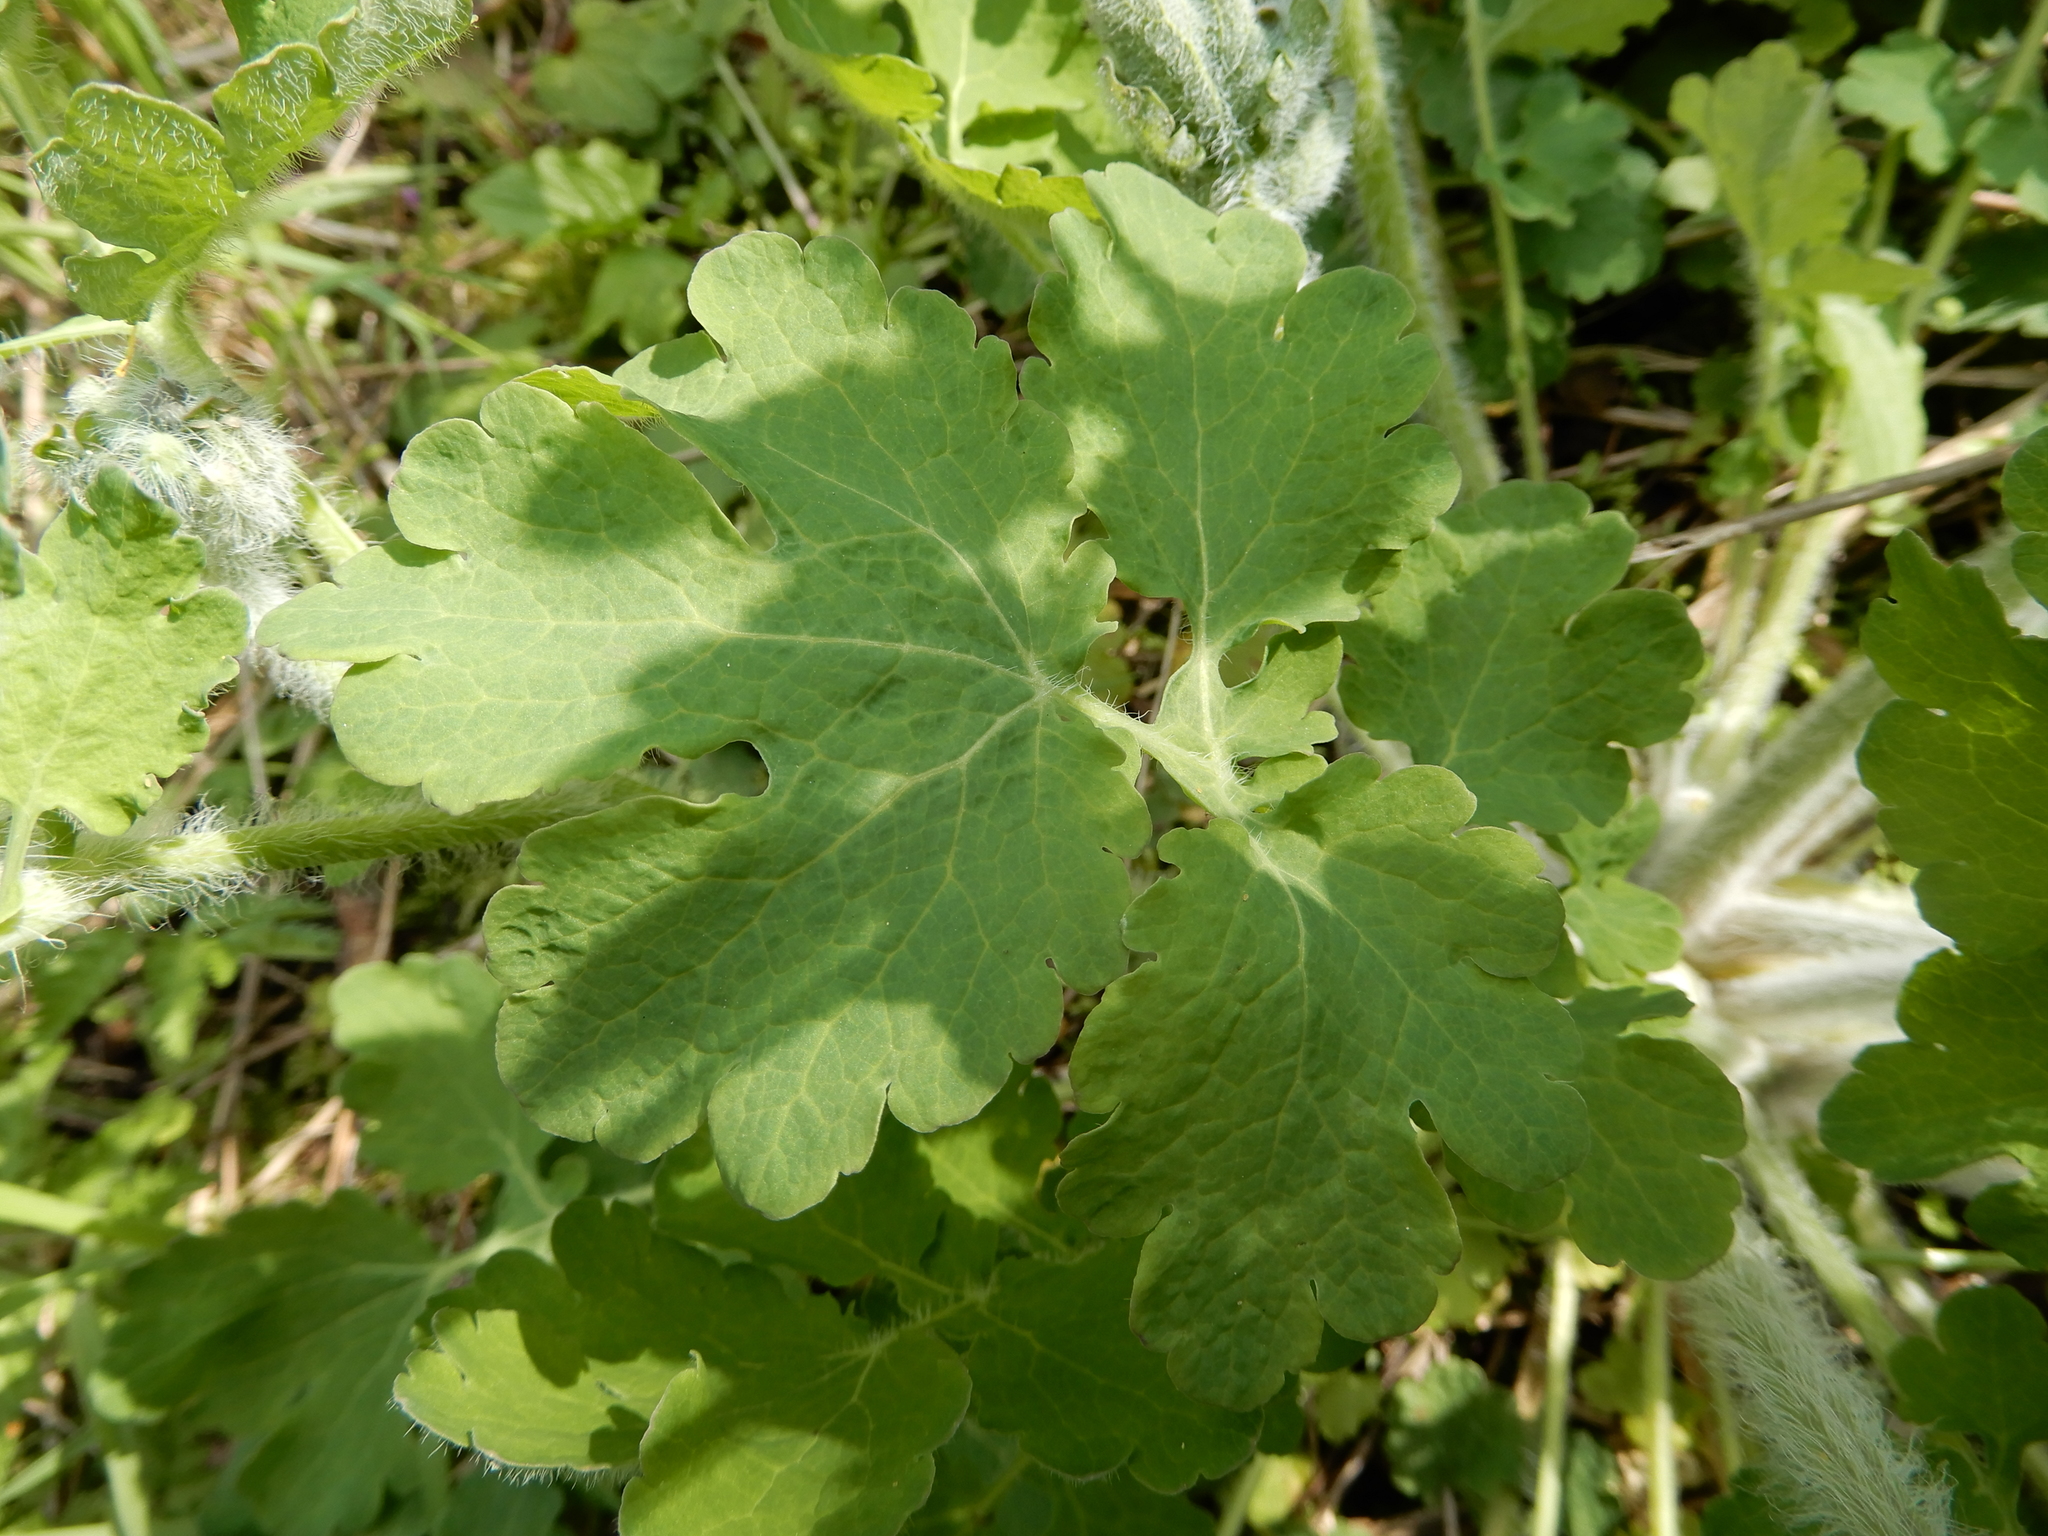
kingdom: Plantae
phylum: Tracheophyta
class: Magnoliopsida
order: Ranunculales
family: Papaveraceae
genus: Chelidonium
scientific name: Chelidonium majus
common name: Greater celandine
